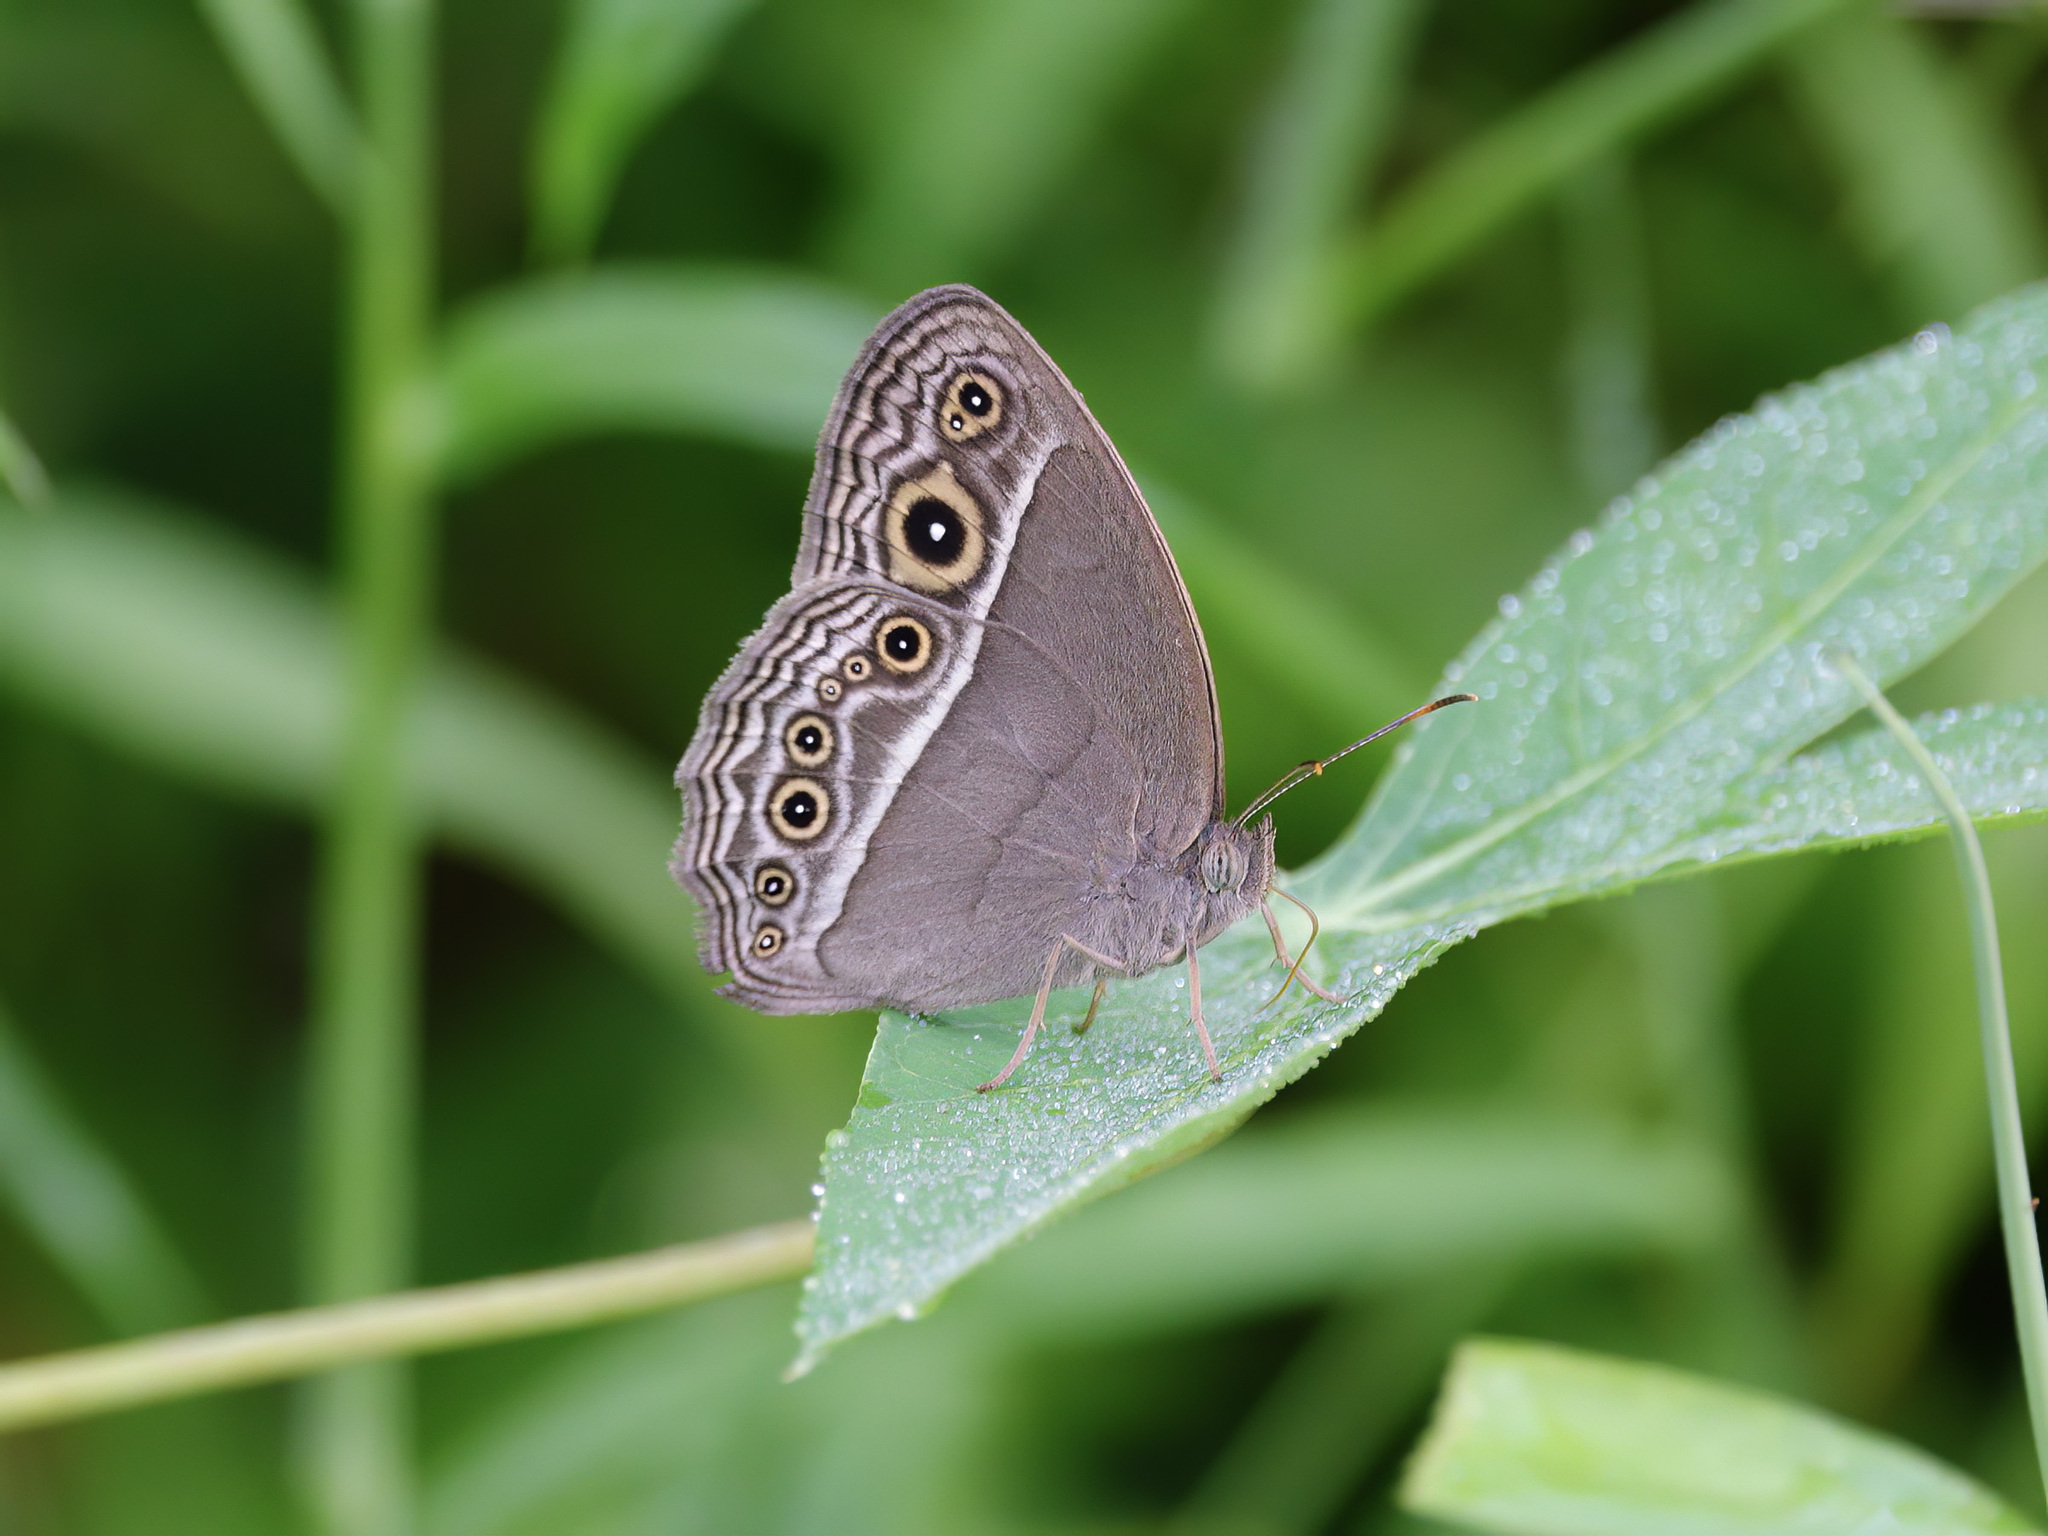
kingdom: Animalia
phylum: Arthropoda
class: Insecta
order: Lepidoptera
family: Nymphalidae
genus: Mycalesis
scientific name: Mycalesis visala
